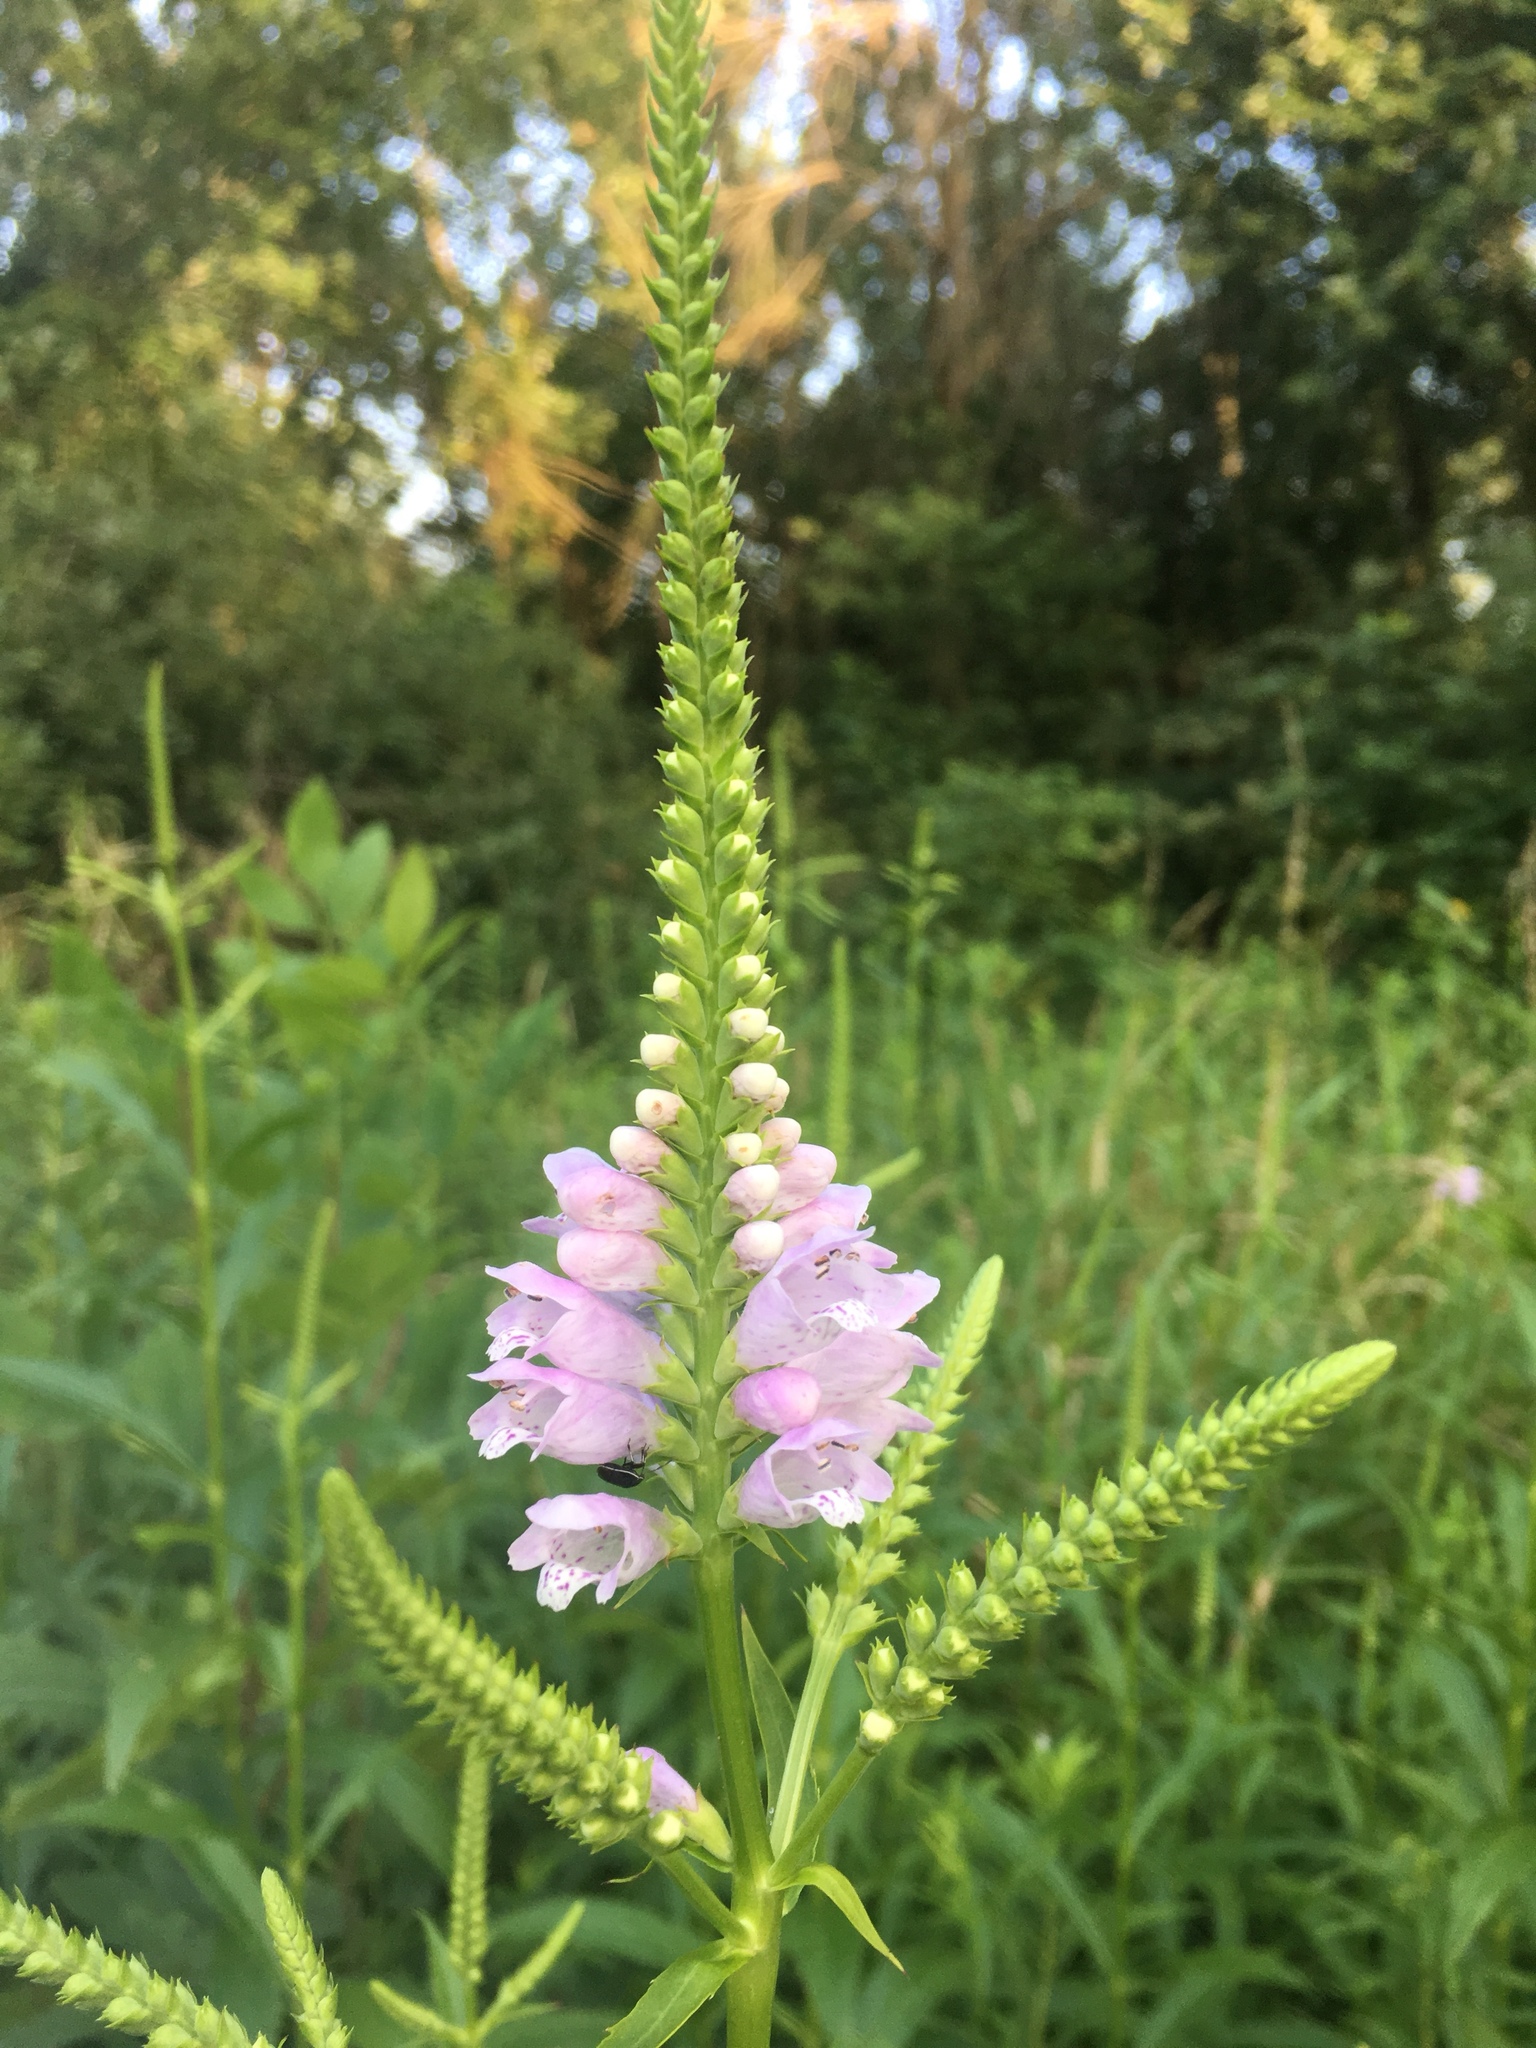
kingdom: Plantae
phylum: Tracheophyta
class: Magnoliopsida
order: Lamiales
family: Lamiaceae
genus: Physostegia
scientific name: Physostegia virginiana
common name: Obedient-plant
